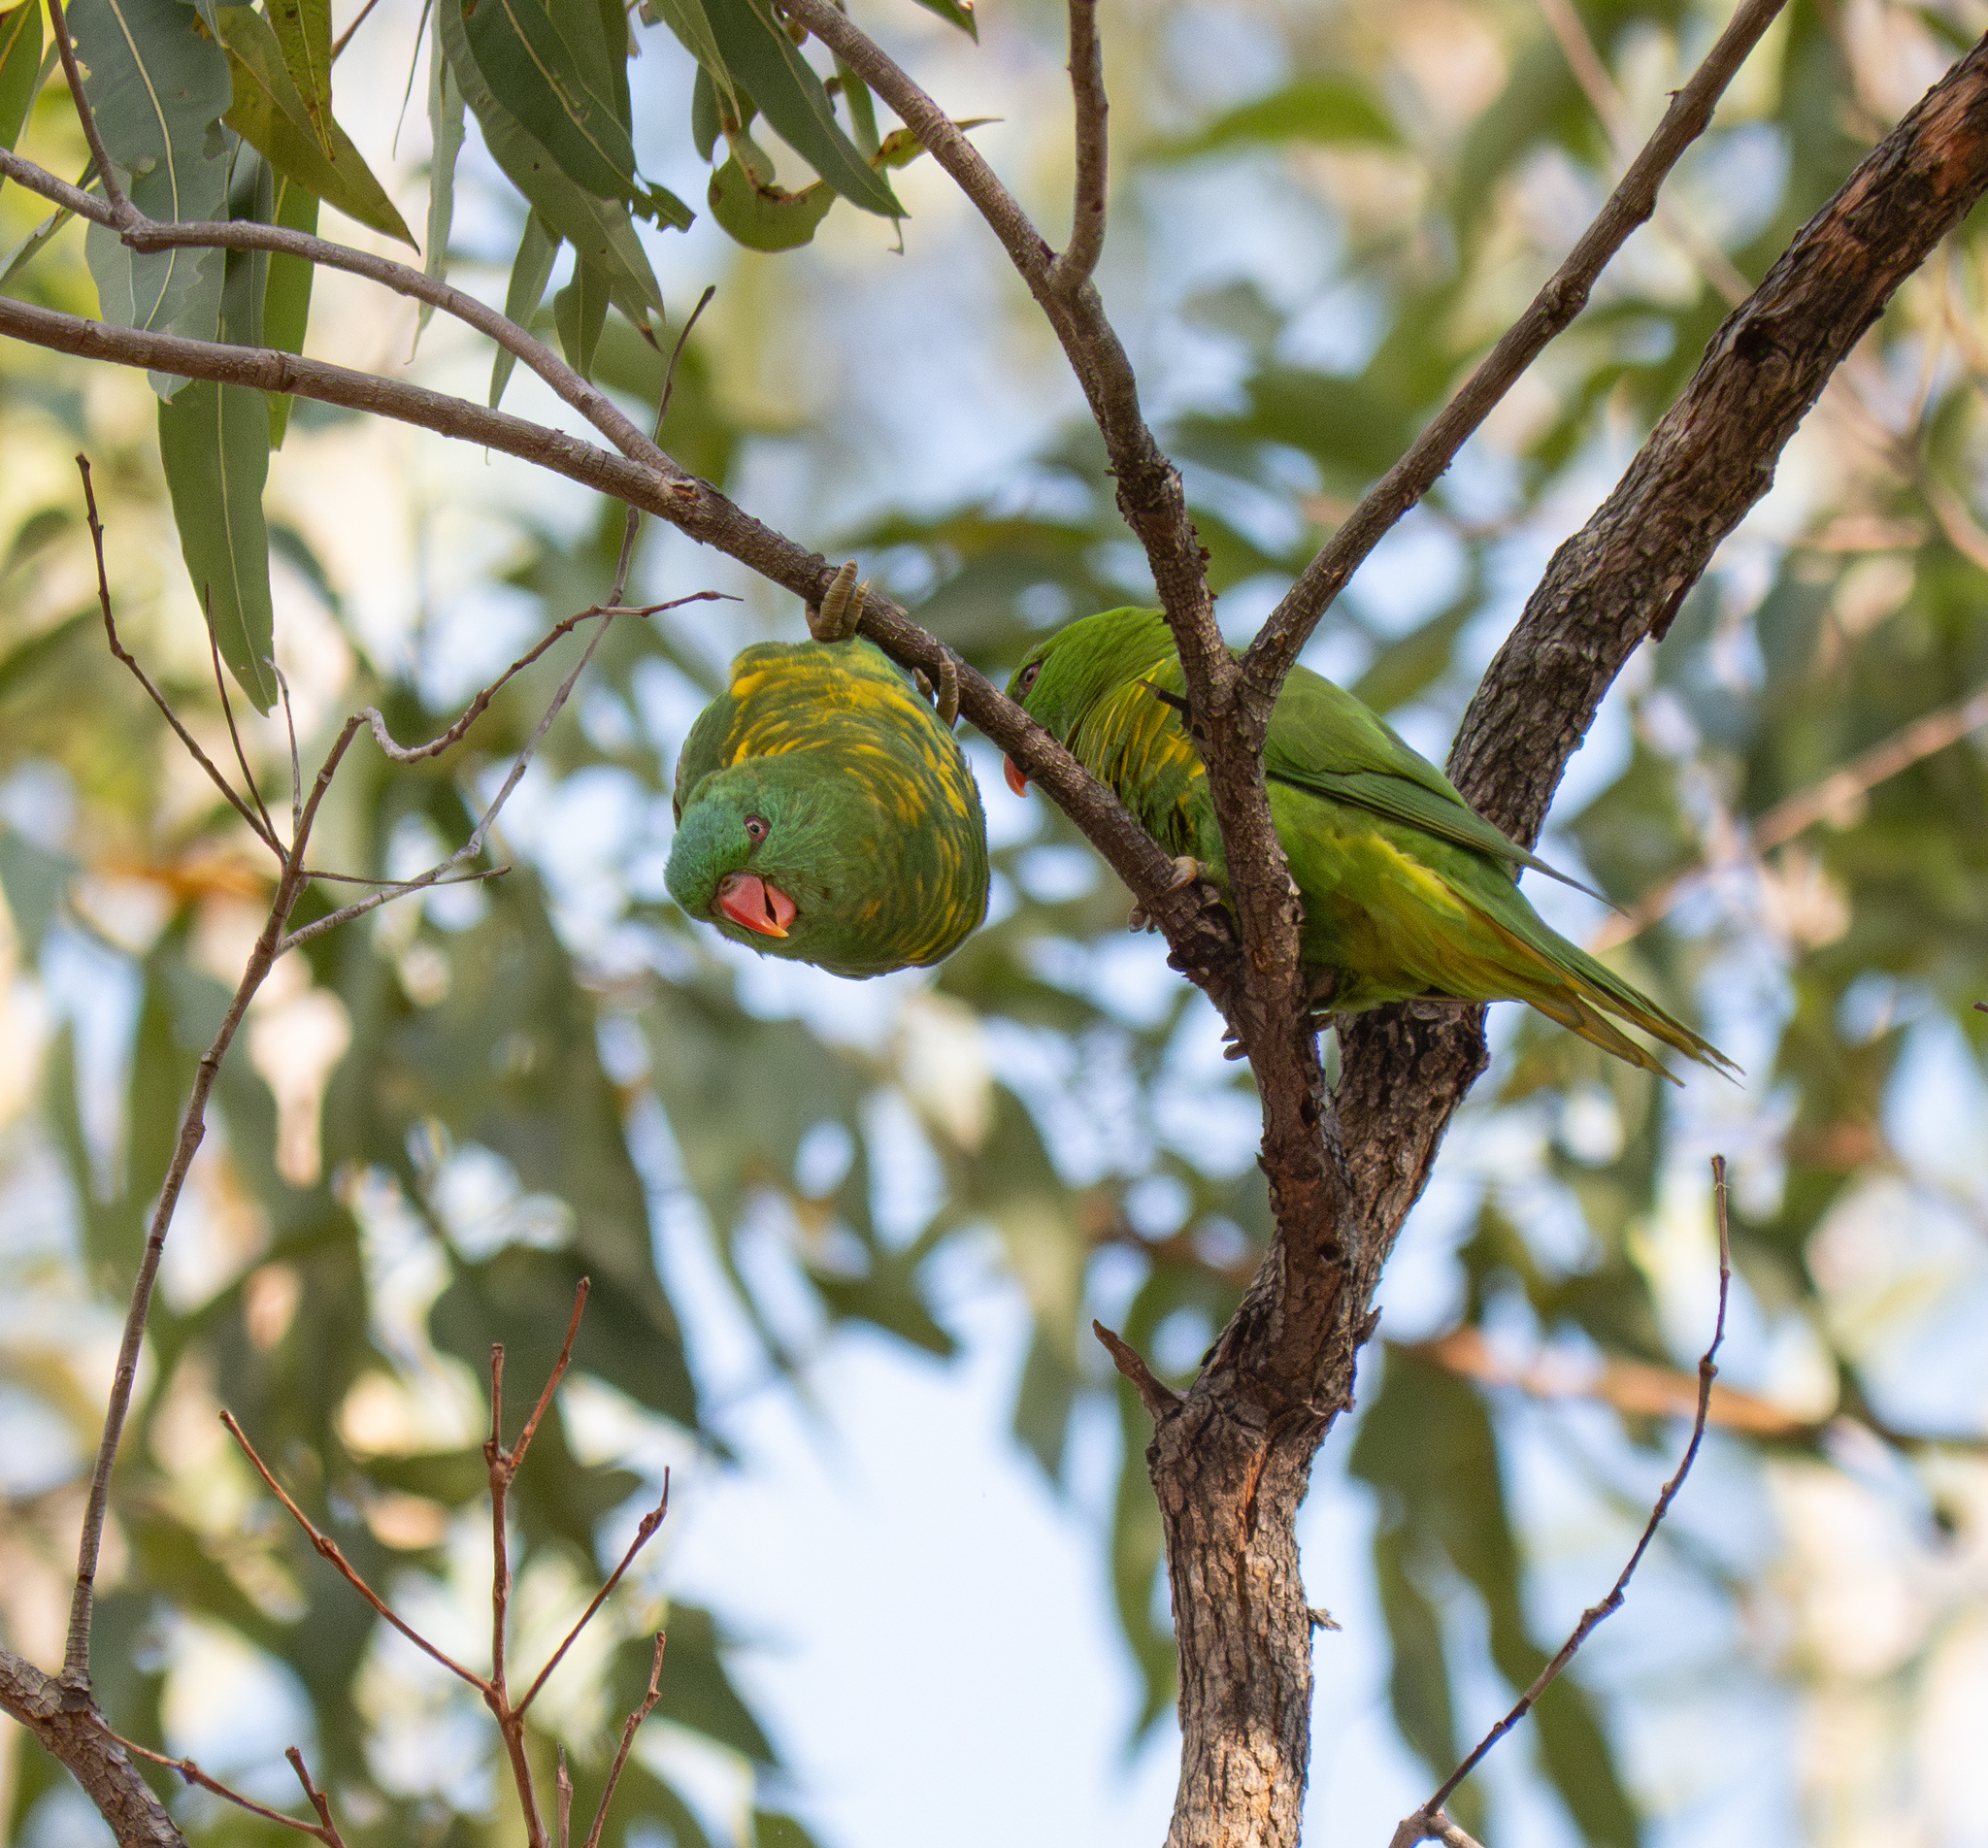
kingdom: Animalia
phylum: Chordata
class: Aves
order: Psittaciformes
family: Psittacidae
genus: Trichoglossus
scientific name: Trichoglossus chlorolepidotus
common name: Scaly-breasted lorikeet
